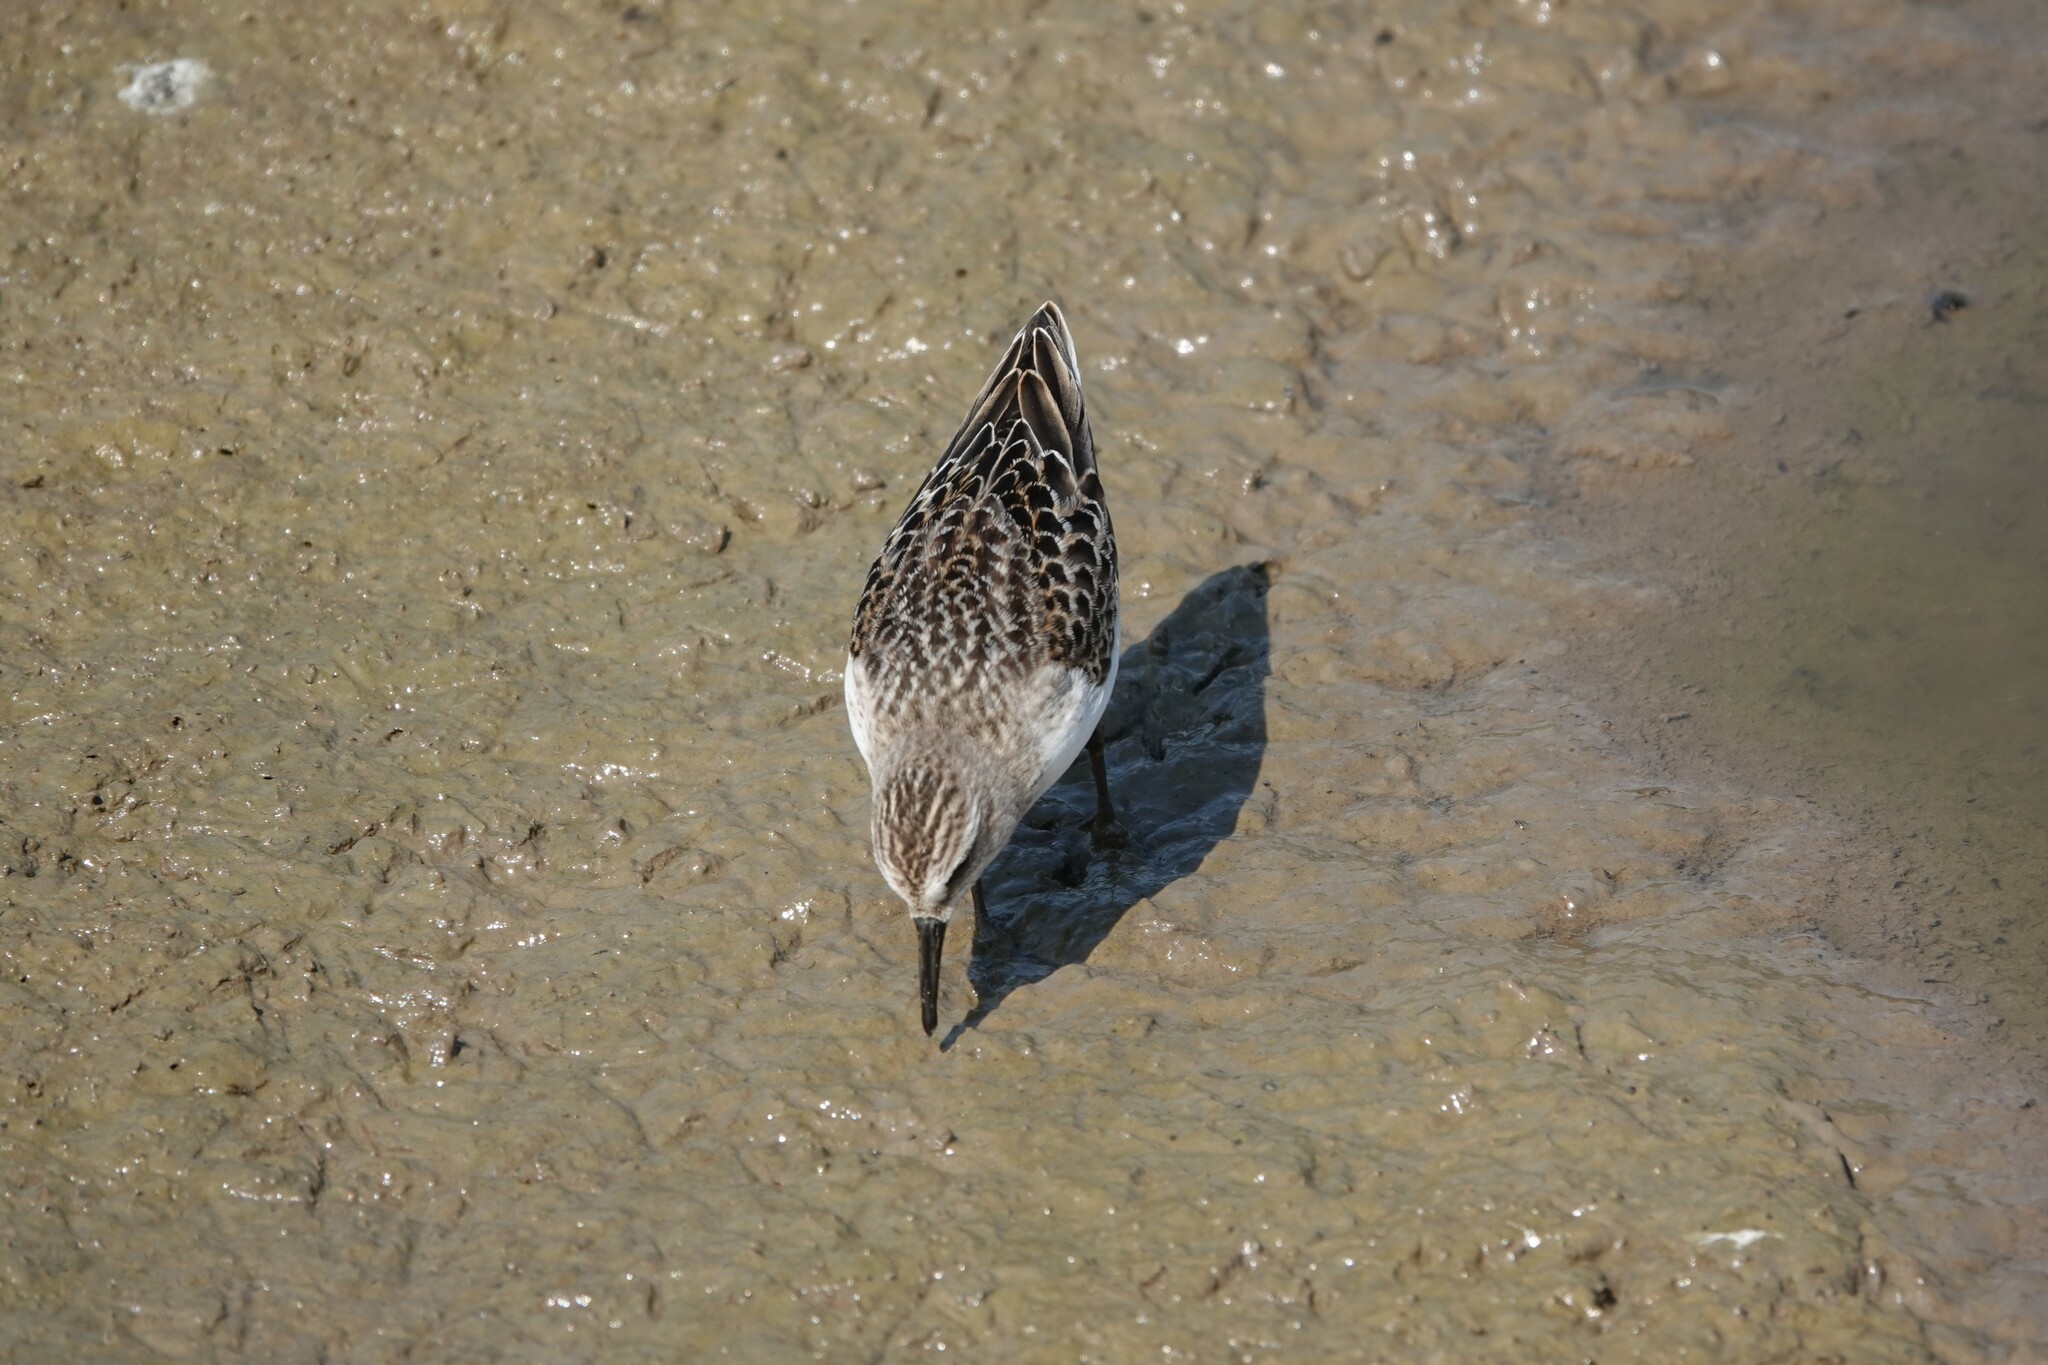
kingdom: Animalia
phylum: Chordata
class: Aves
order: Charadriiformes
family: Scolopacidae
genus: Calidris
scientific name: Calidris pusilla
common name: Semipalmated sandpiper
